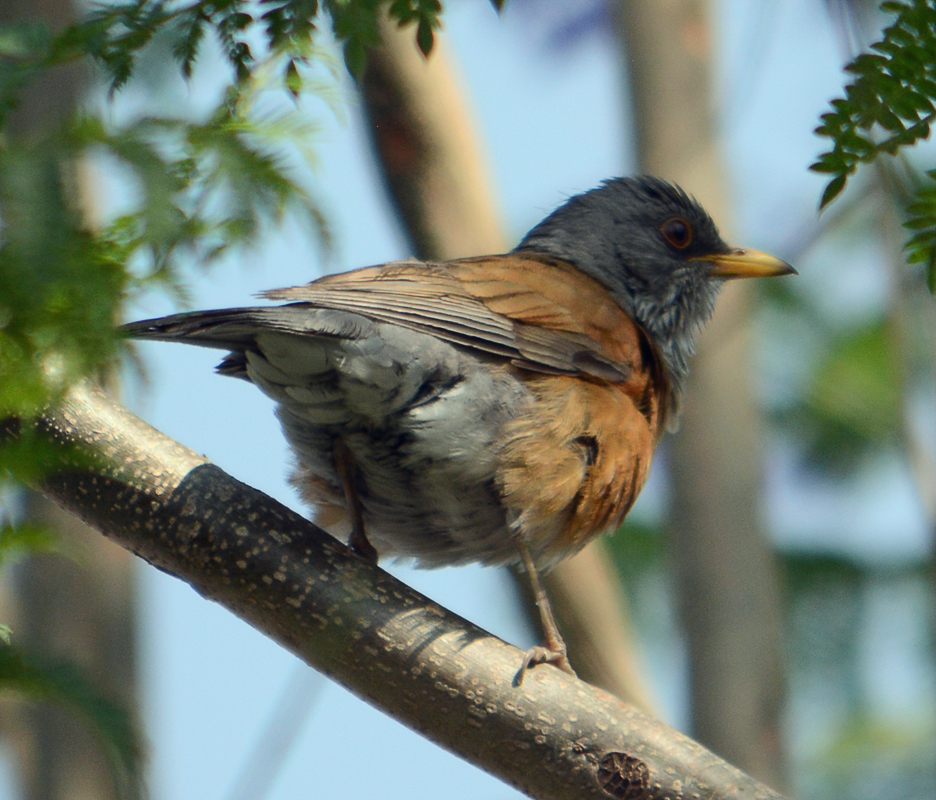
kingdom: Animalia
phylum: Chordata
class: Aves
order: Passeriformes
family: Turdidae
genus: Turdus
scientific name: Turdus rufopalliatus
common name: Rufous-backed robin
